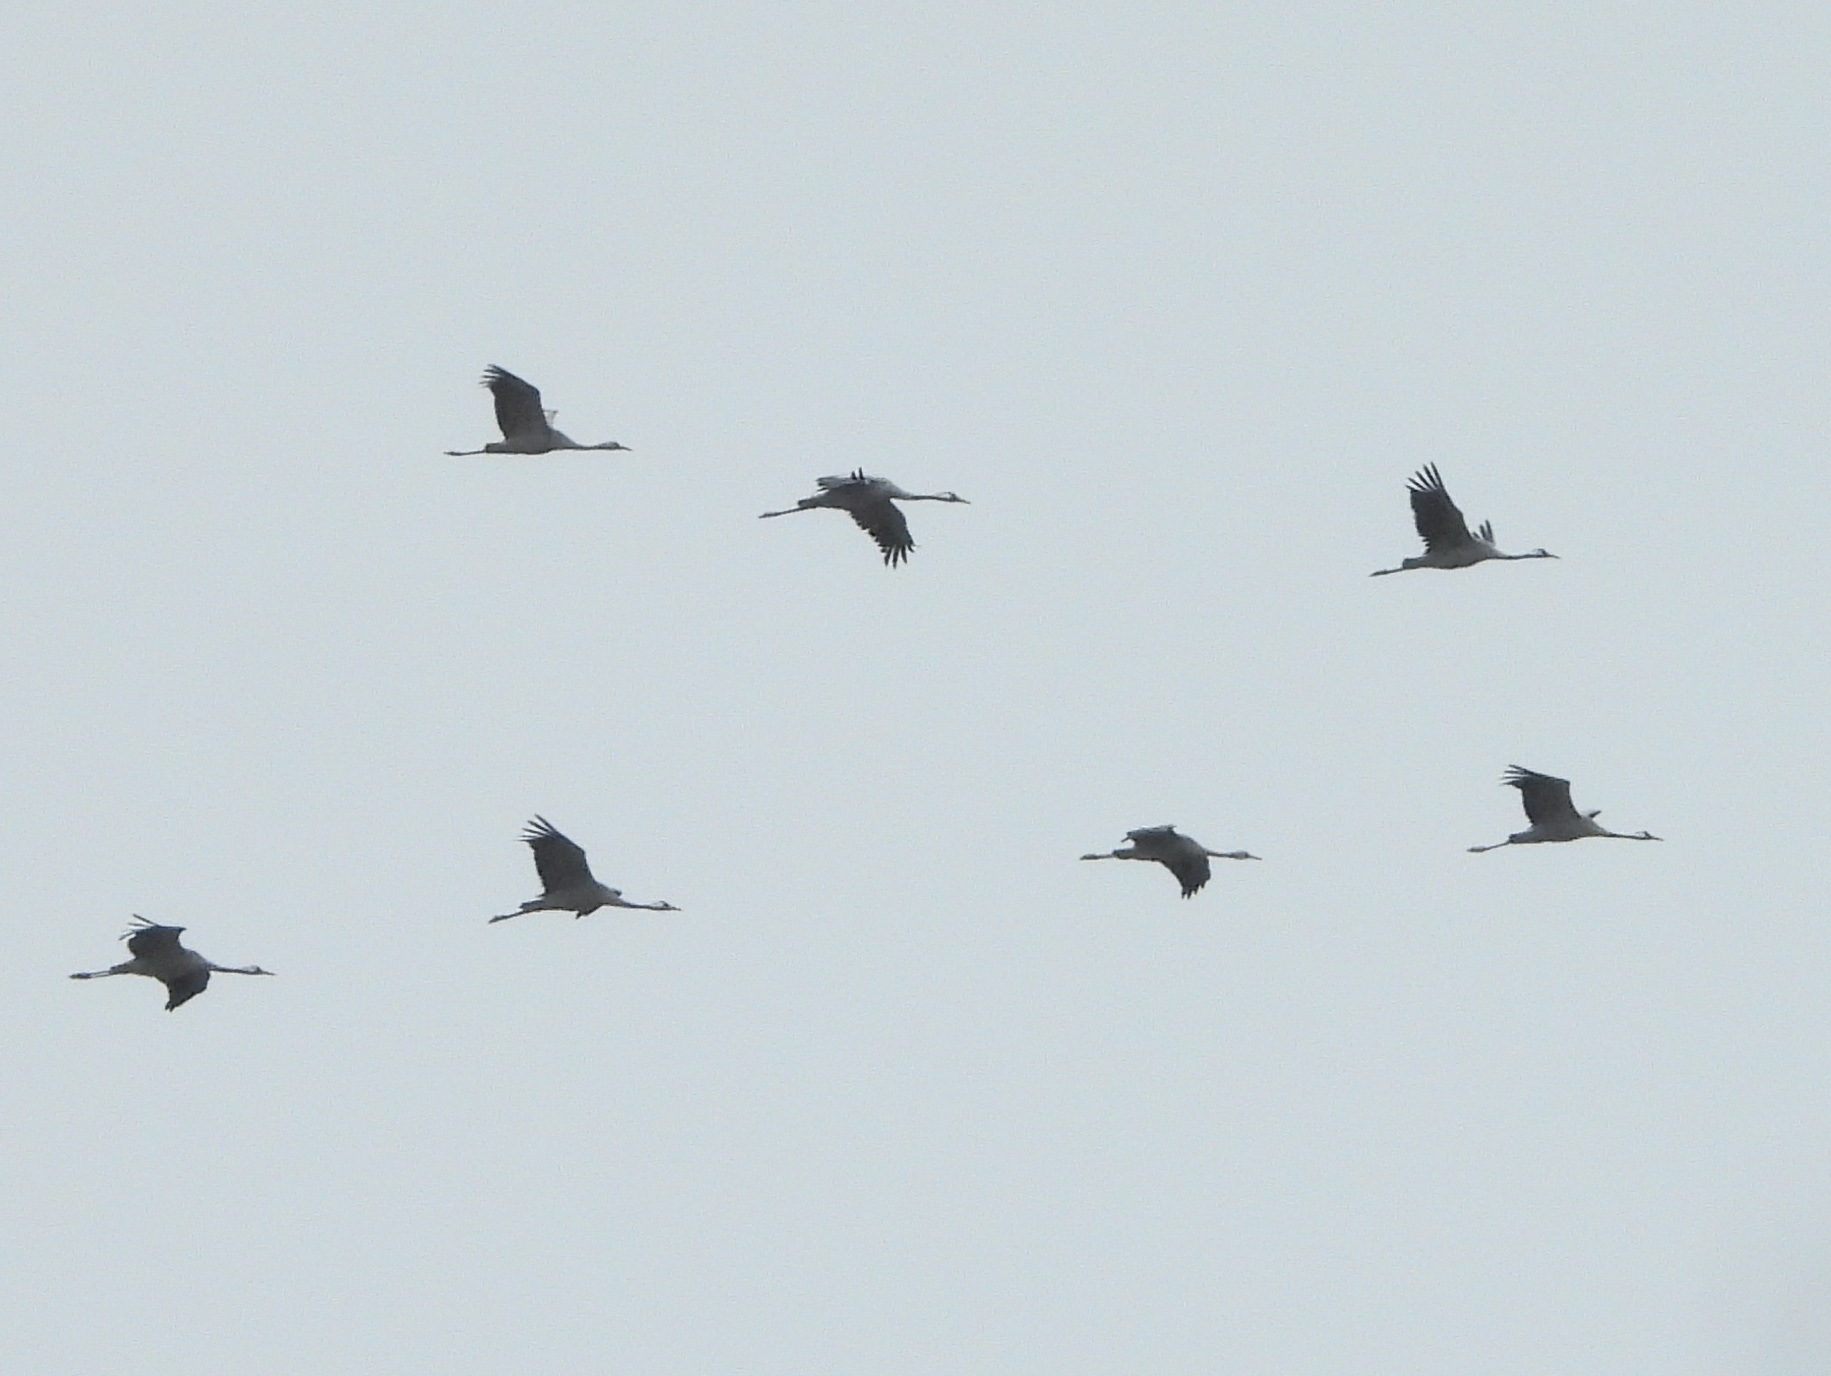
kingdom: Animalia
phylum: Chordata
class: Aves
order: Gruiformes
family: Gruidae
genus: Grus
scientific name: Grus grus
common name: Common crane
